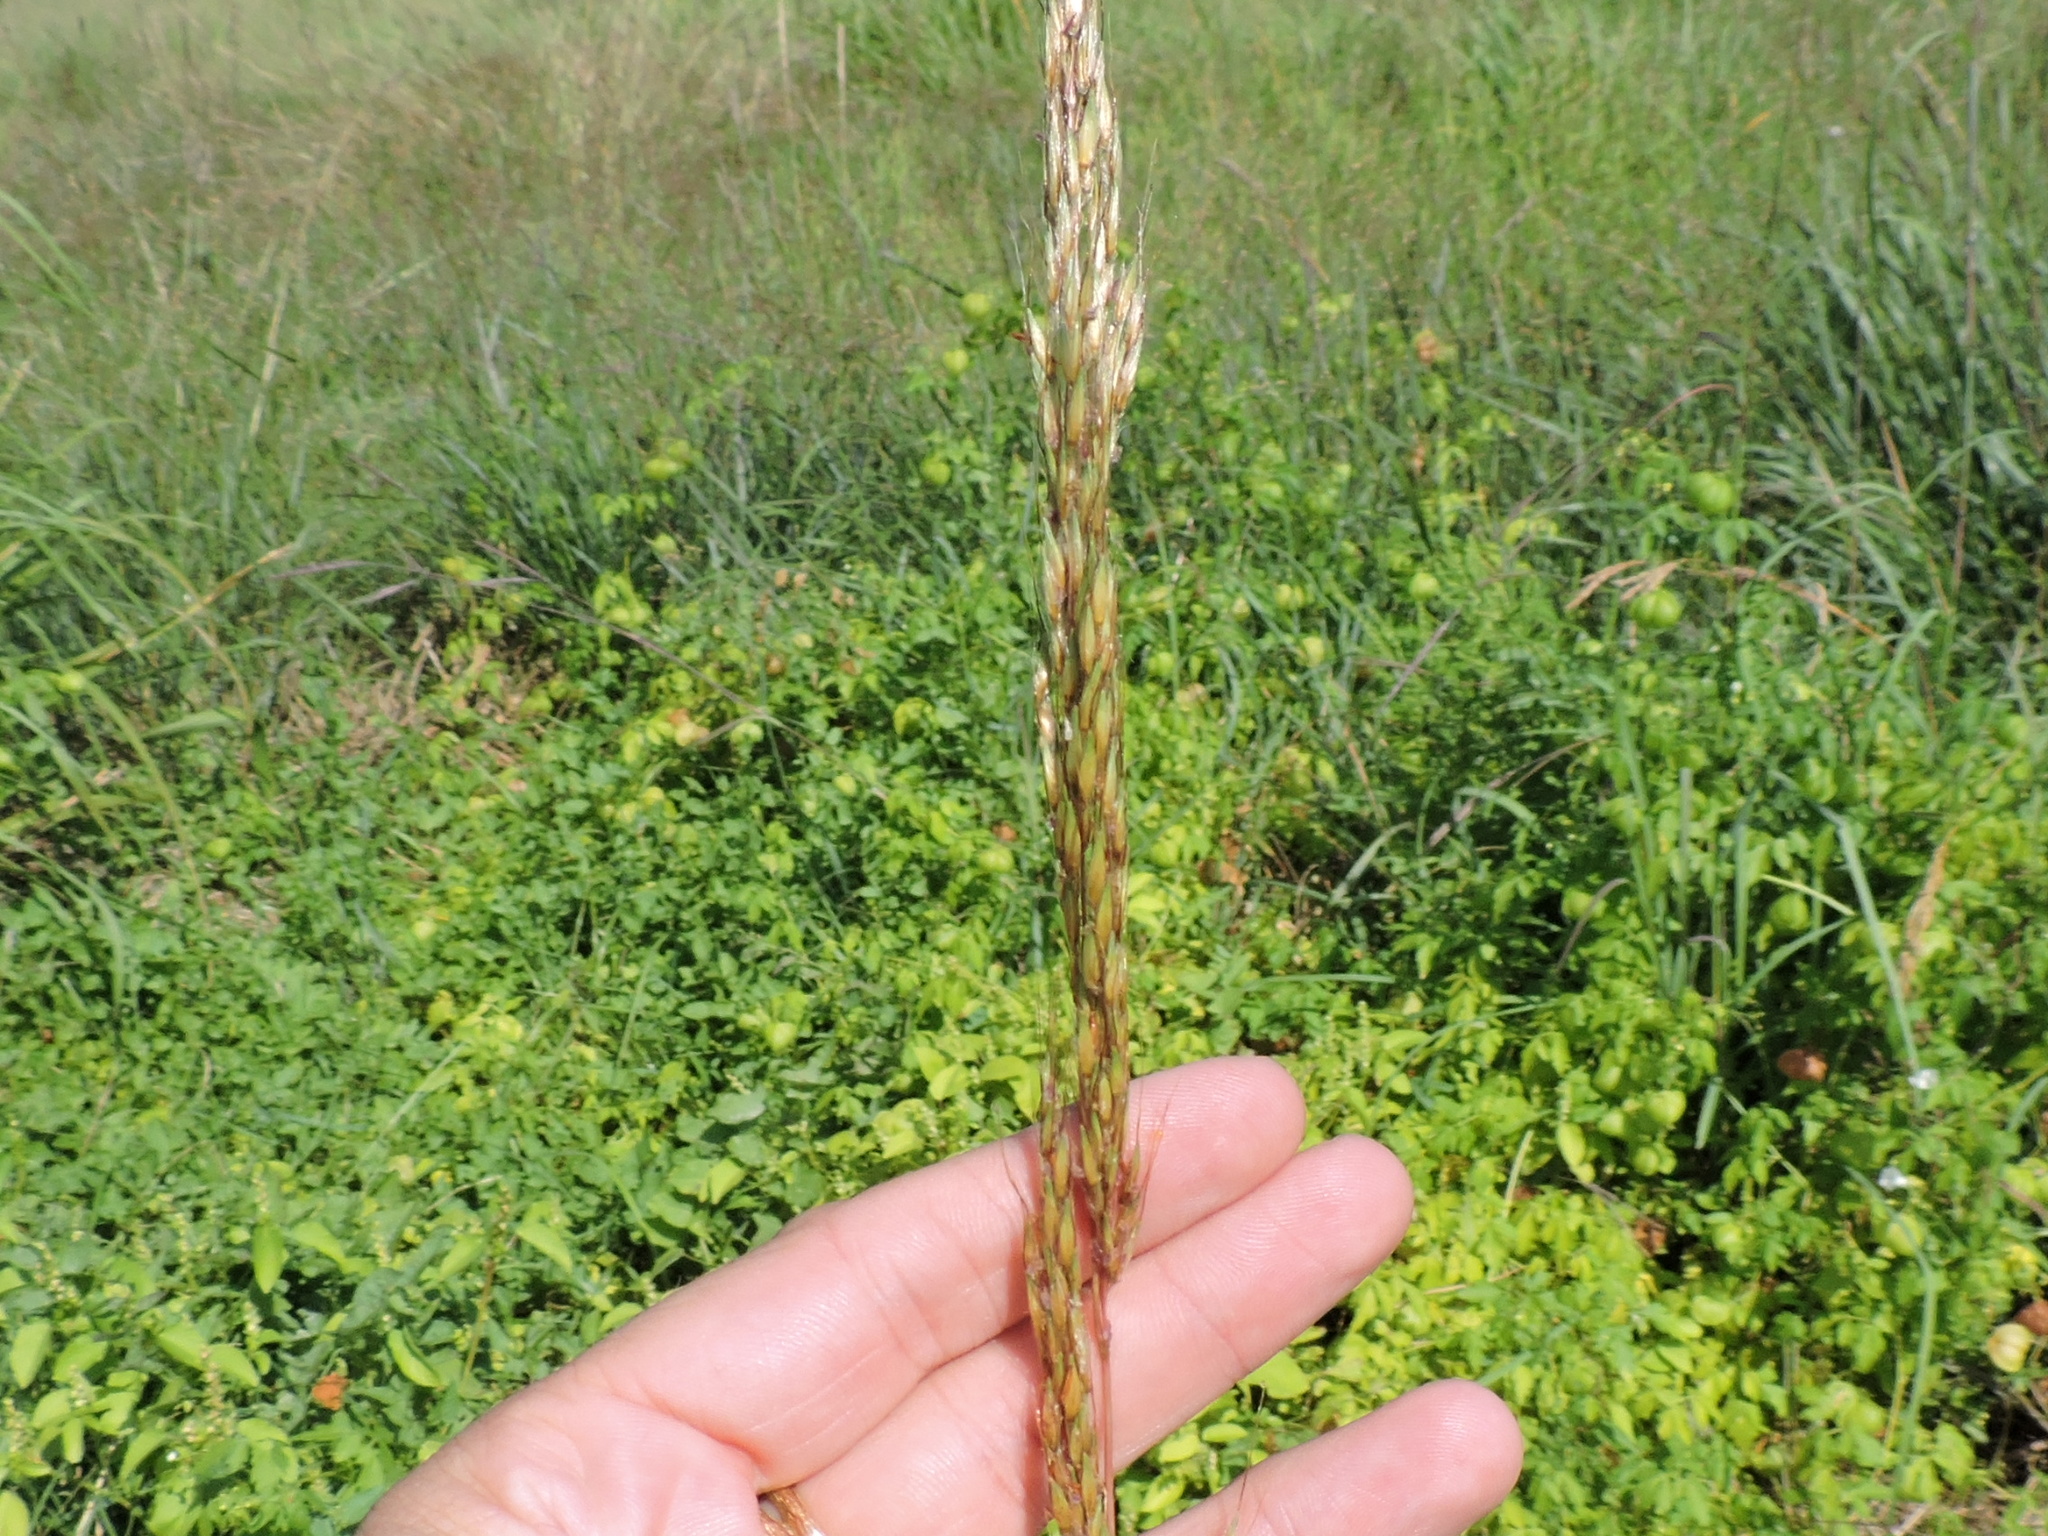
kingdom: Plantae
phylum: Tracheophyta
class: Liliopsida
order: Poales
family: Poaceae
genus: Sorghastrum
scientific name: Sorghastrum nutans
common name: Indian grass
